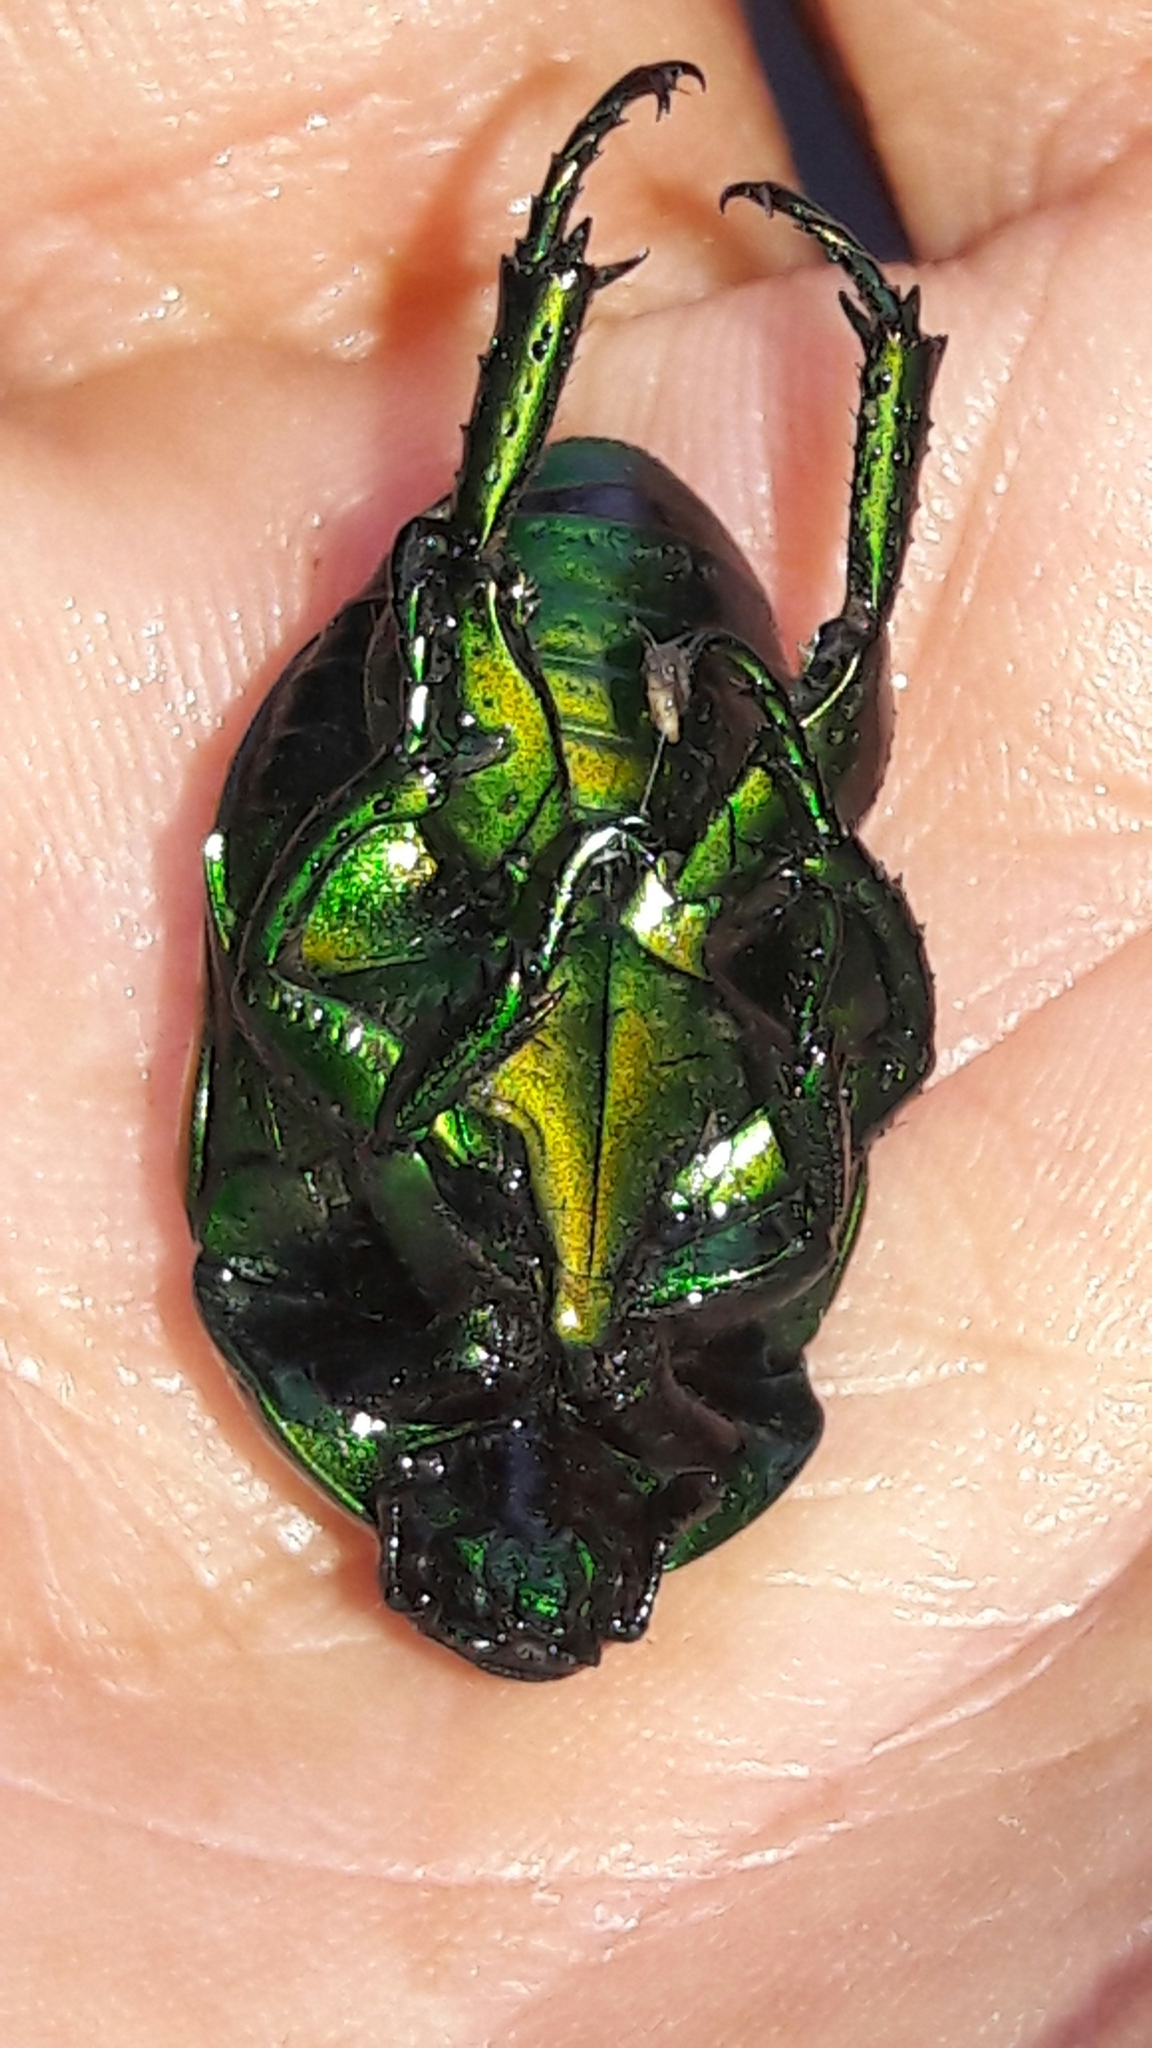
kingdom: Animalia
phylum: Arthropoda
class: Insecta
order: Coleoptera
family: Scarabaeidae
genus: Macraspis
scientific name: Macraspis festiva
